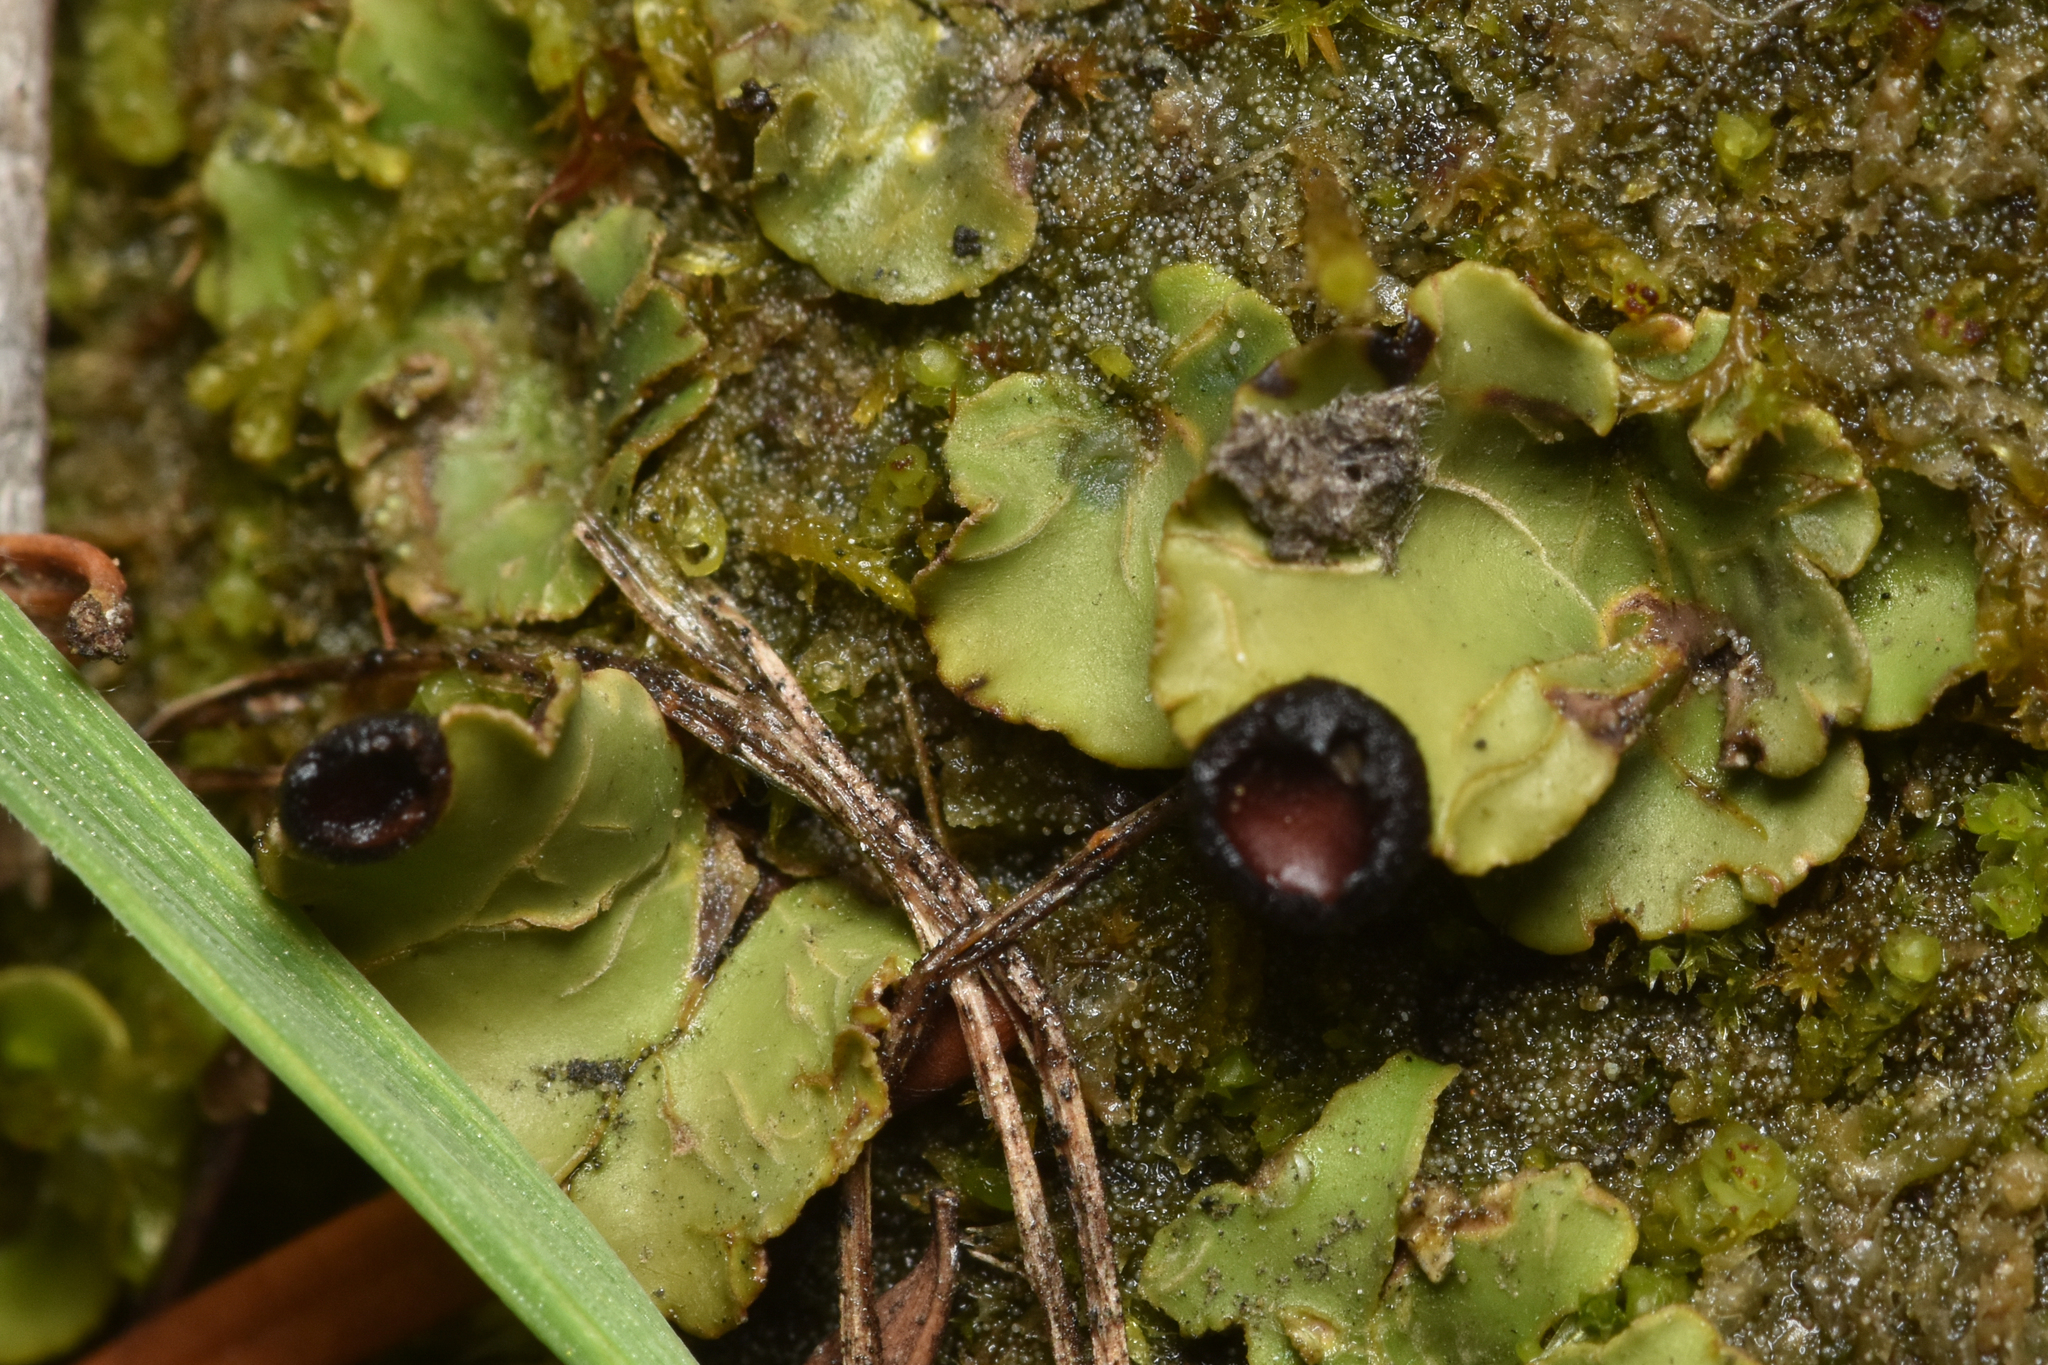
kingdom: Fungi
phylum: Ascomycota
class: Lecanoromycetes
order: Peltigerales
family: Peltigeraceae
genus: Peltigera
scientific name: Peltigera venosa
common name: Pixie gowns lichen
